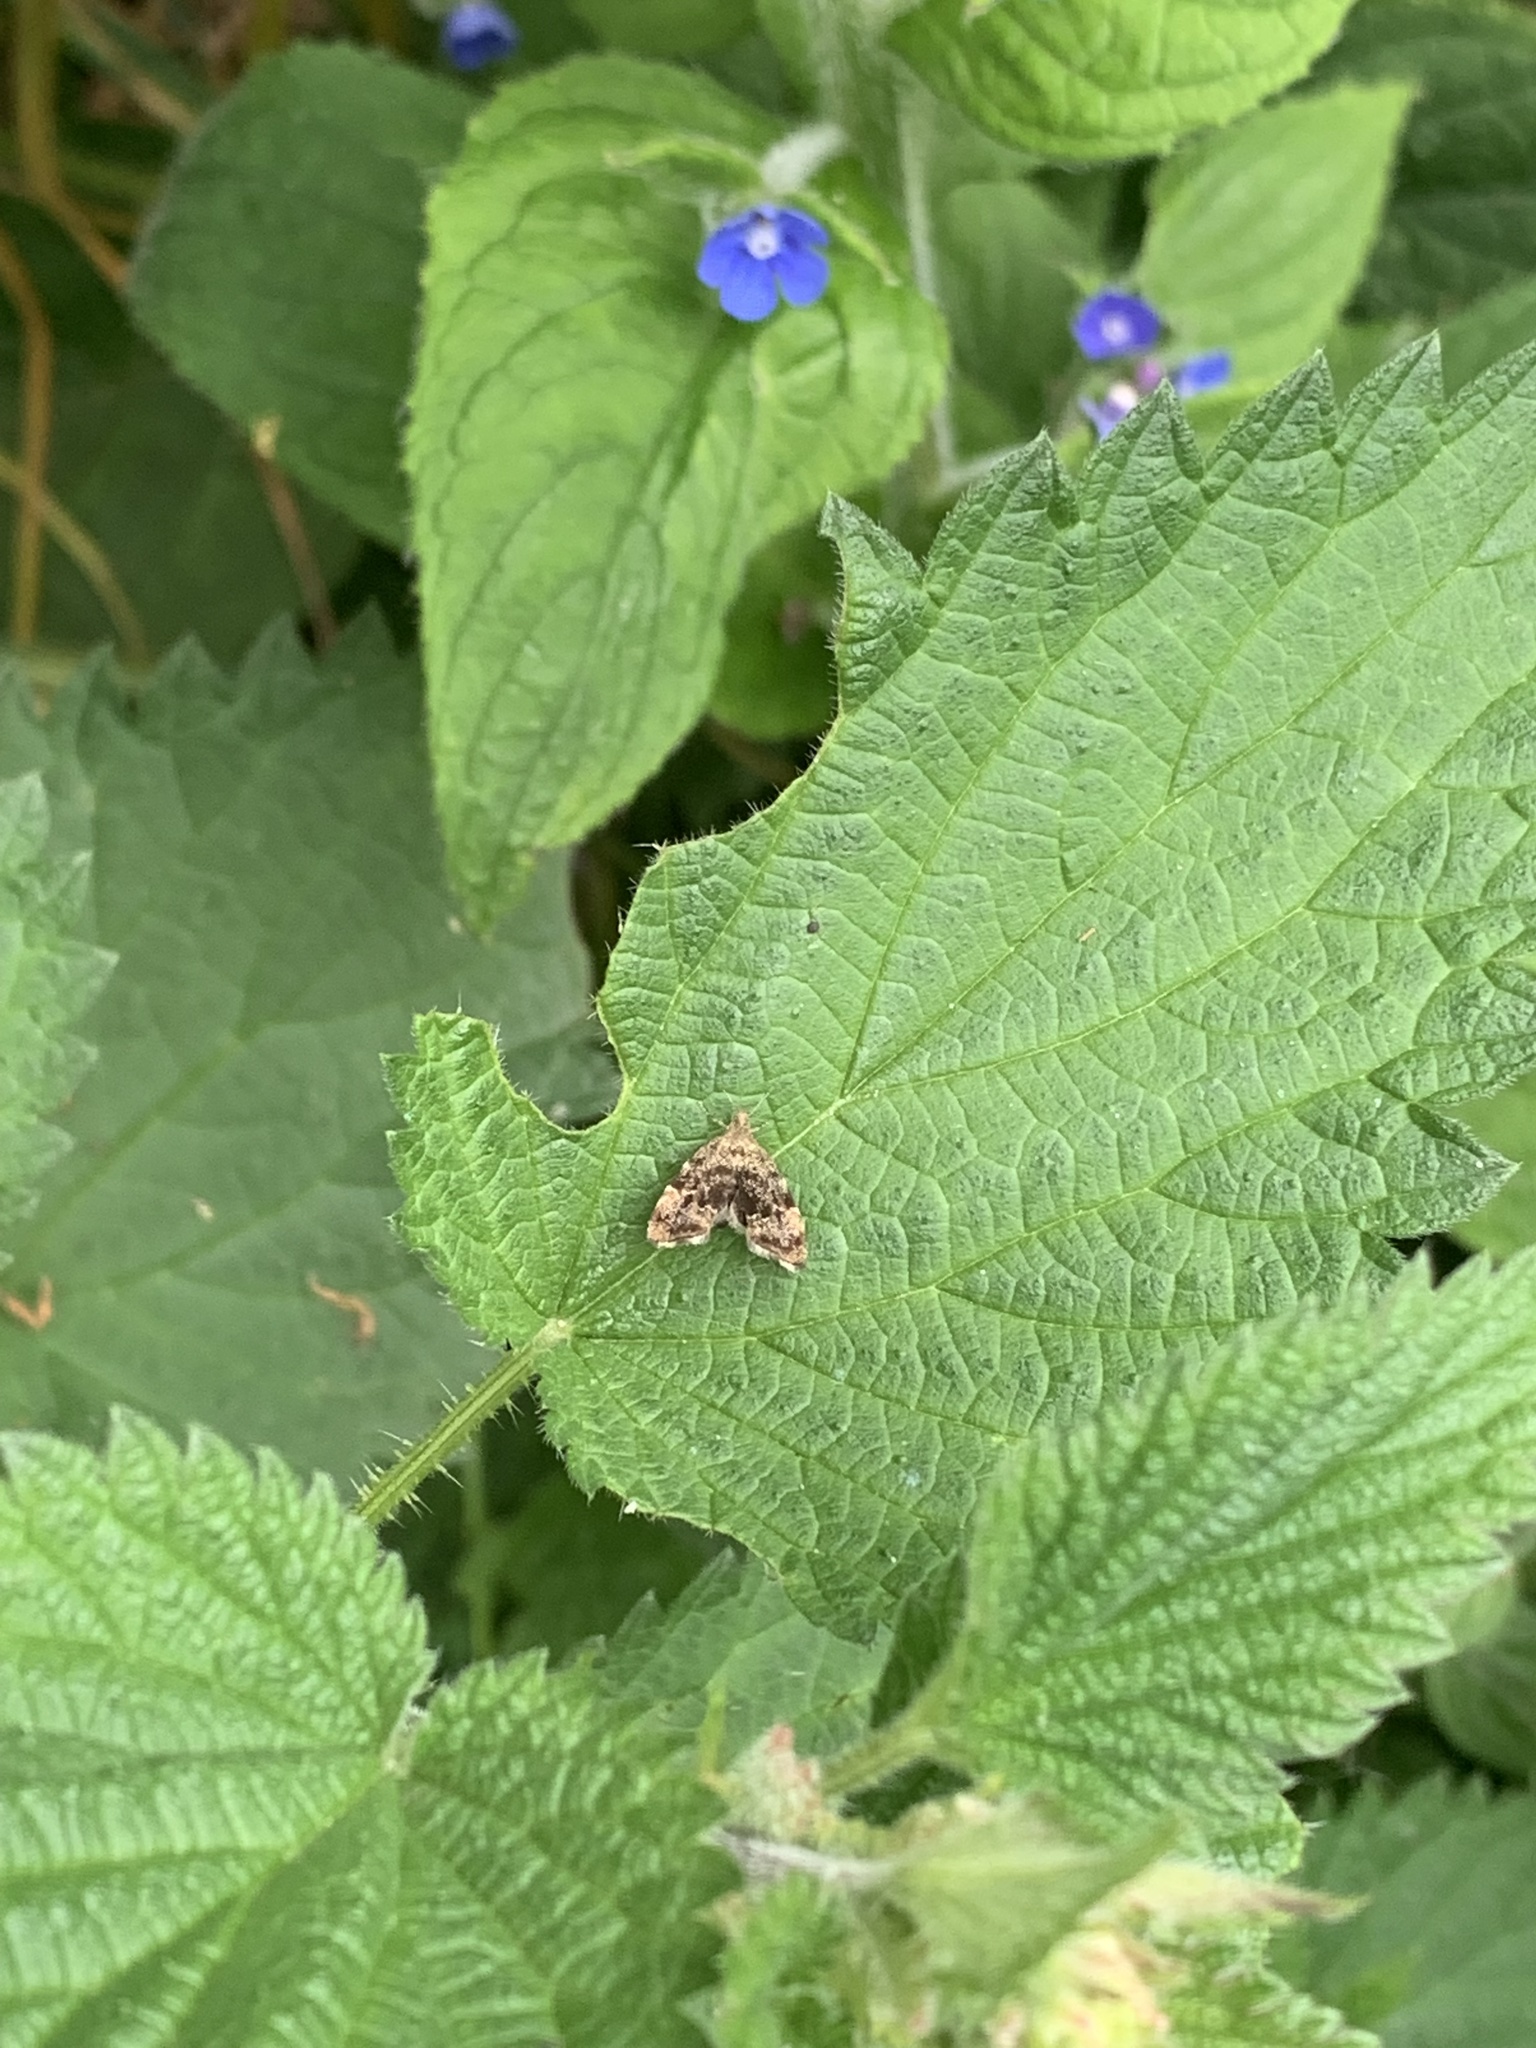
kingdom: Animalia
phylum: Arthropoda
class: Insecta
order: Lepidoptera
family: Choreutidae
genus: Anthophila
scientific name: Anthophila fabriciana
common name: Nettle-tap
